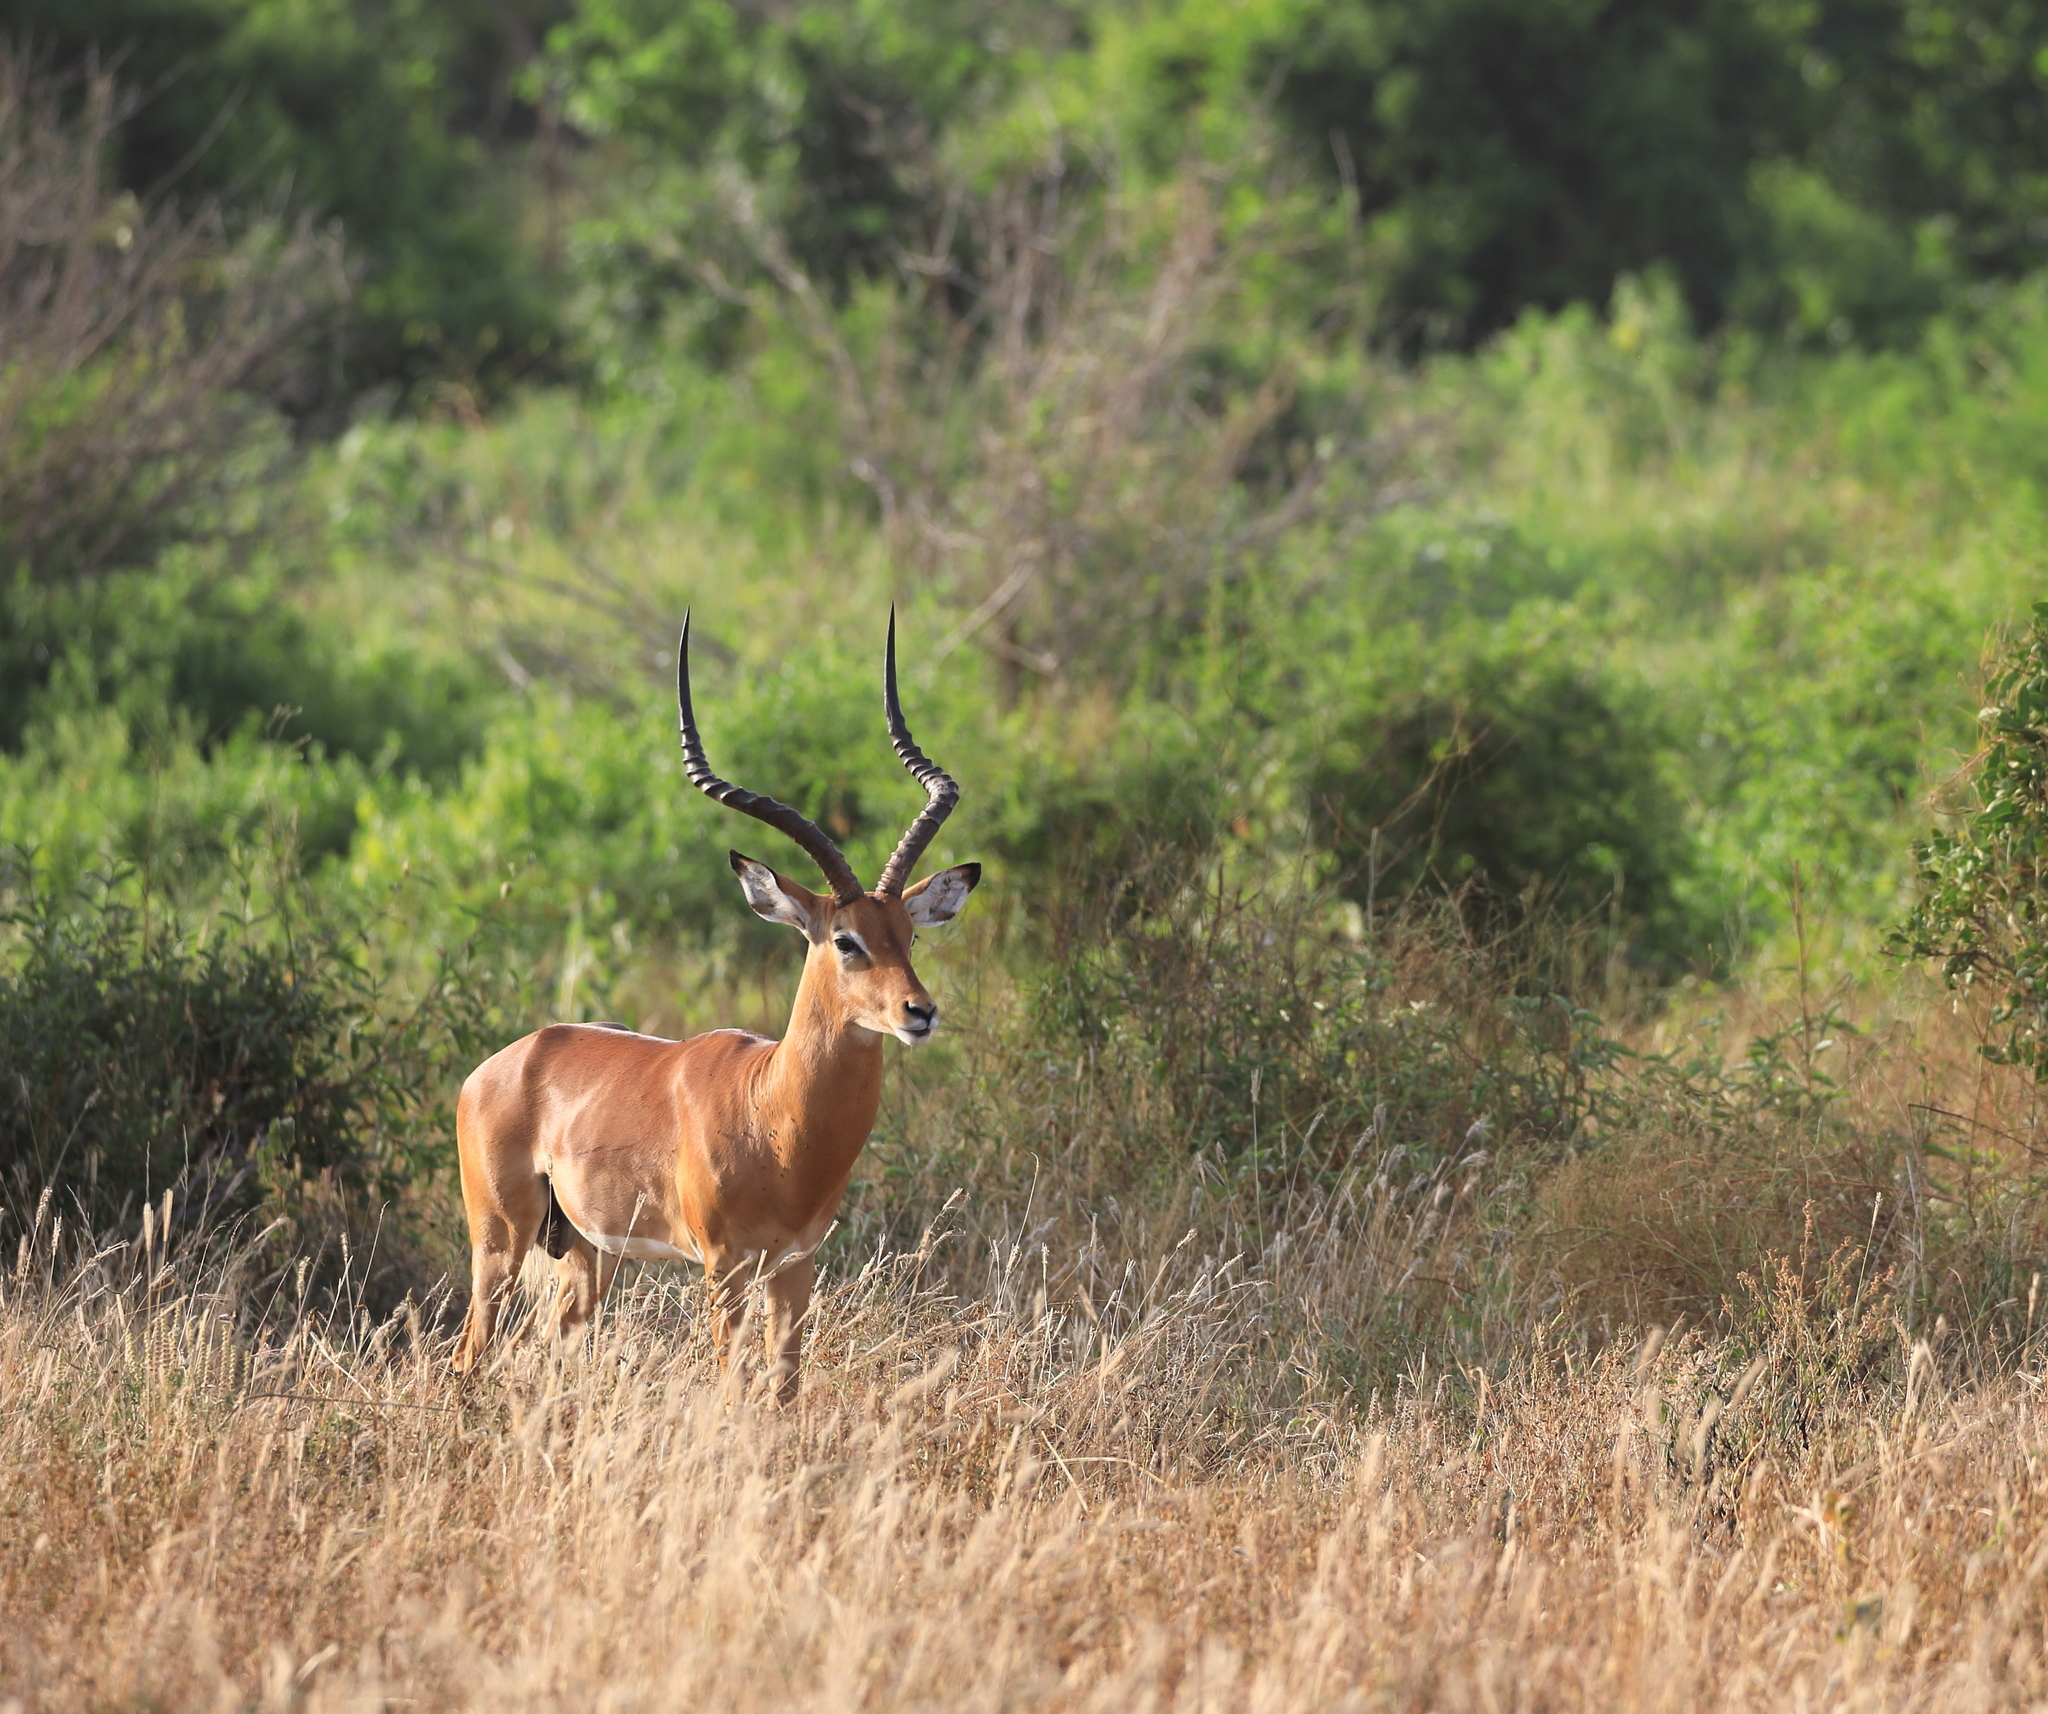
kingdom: Animalia
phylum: Chordata
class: Mammalia
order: Artiodactyla
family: Bovidae
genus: Aepyceros
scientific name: Aepyceros melampus
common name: Impala
